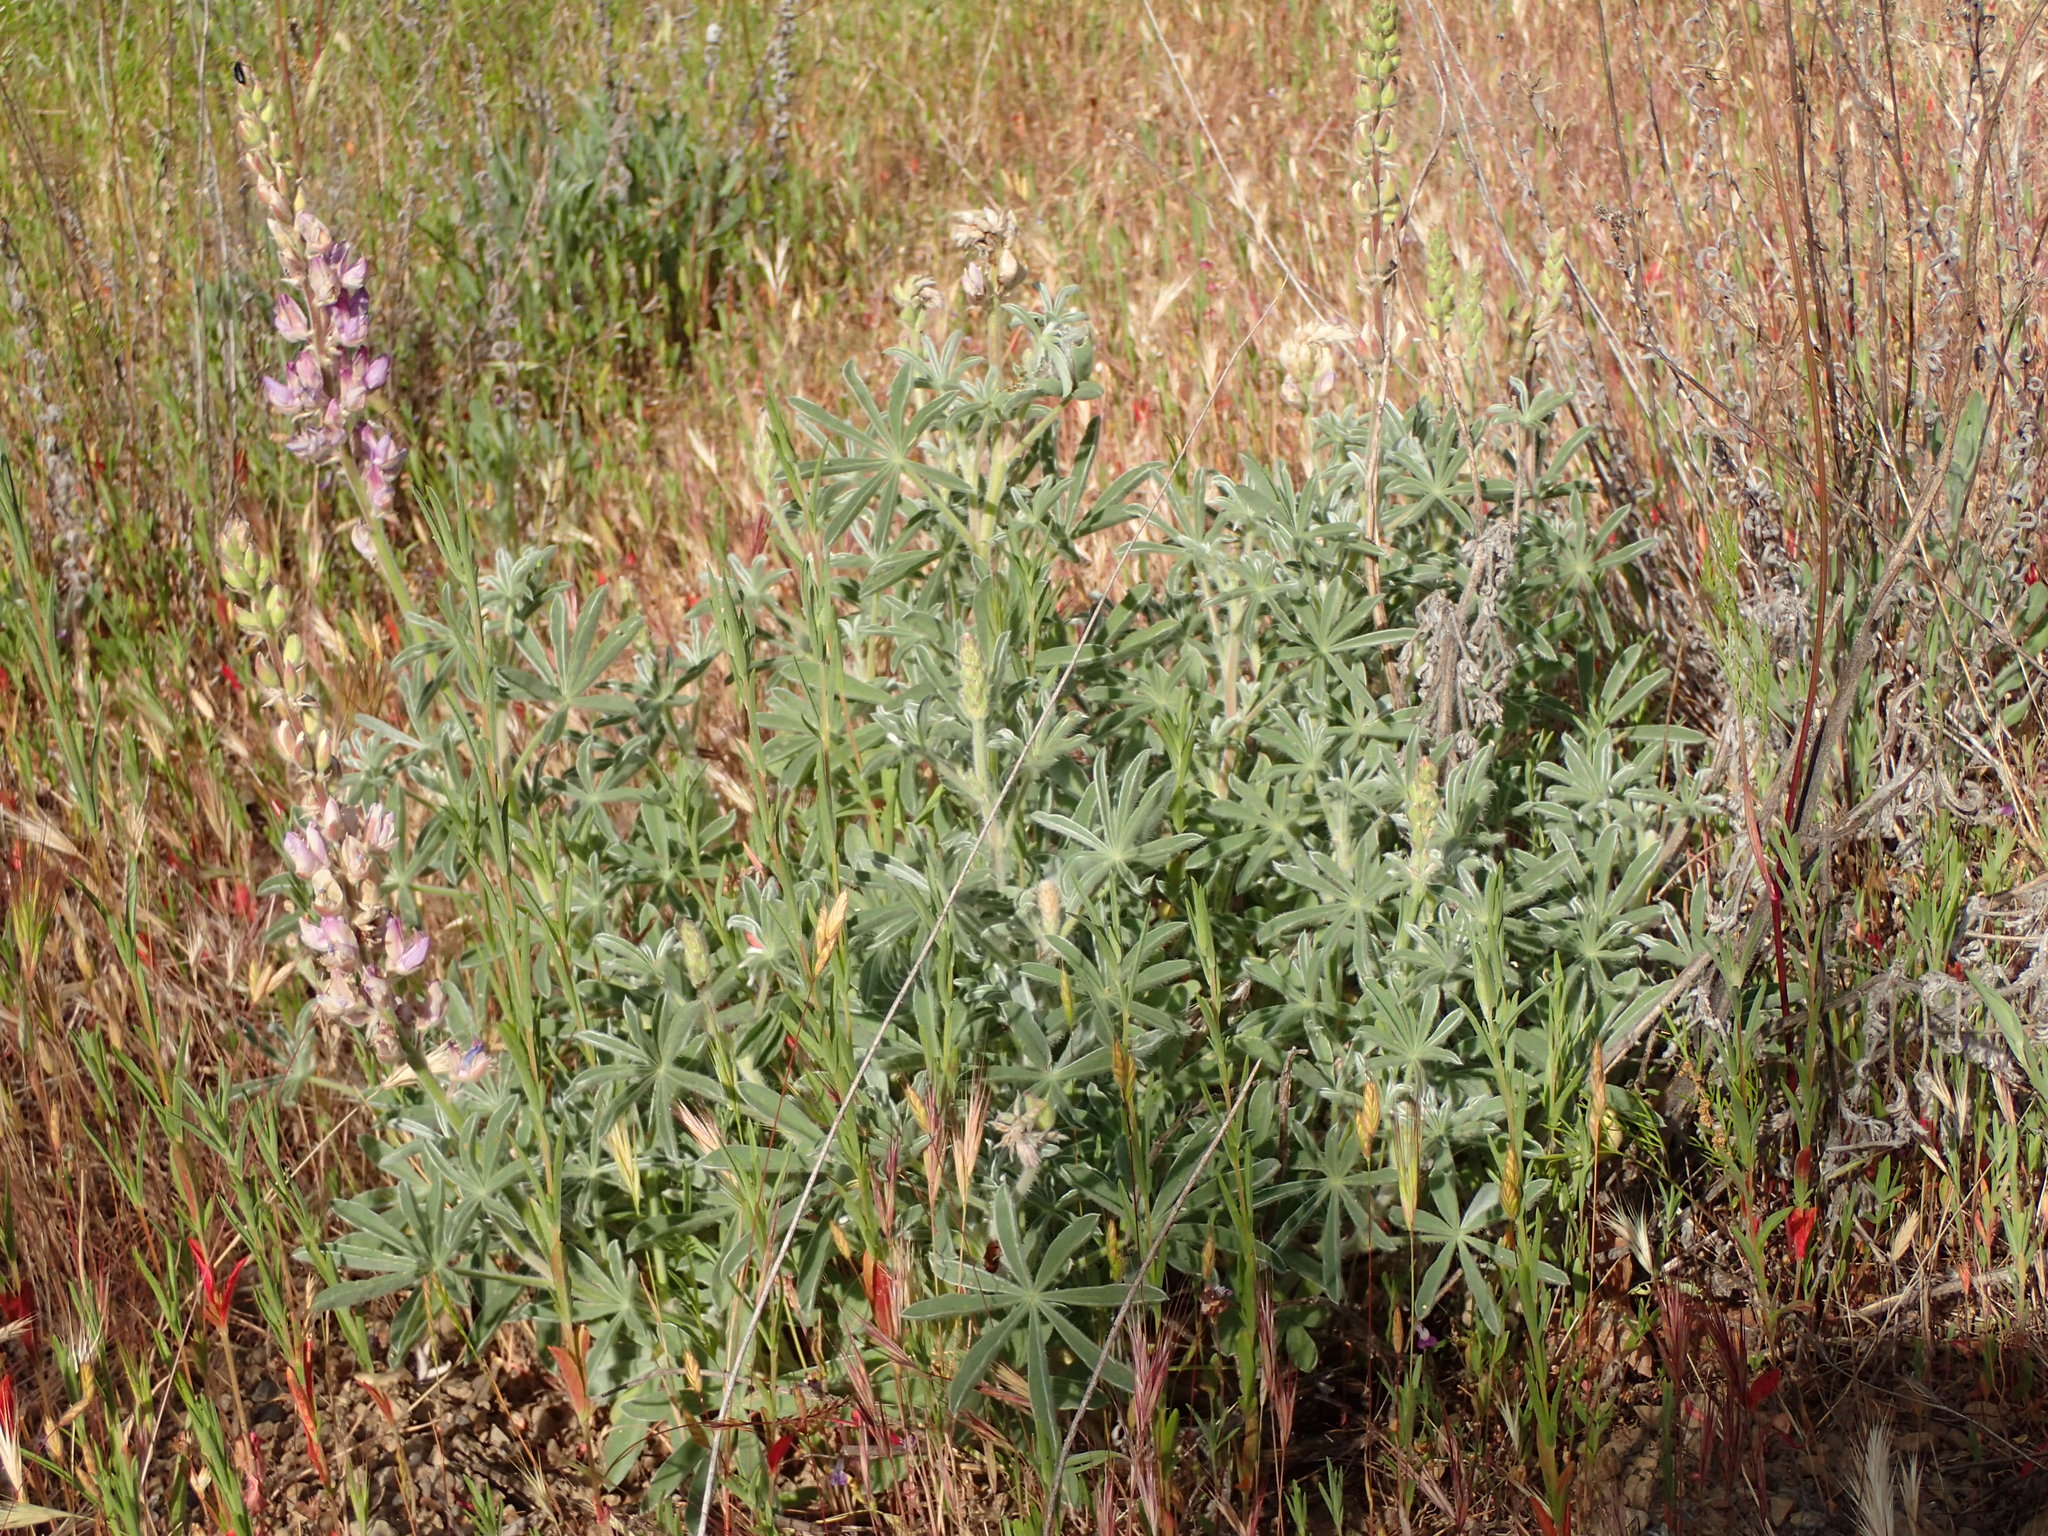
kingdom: Plantae
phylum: Tracheophyta
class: Magnoliopsida
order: Fabales
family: Fabaceae
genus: Lupinus
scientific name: Lupinus formosus
